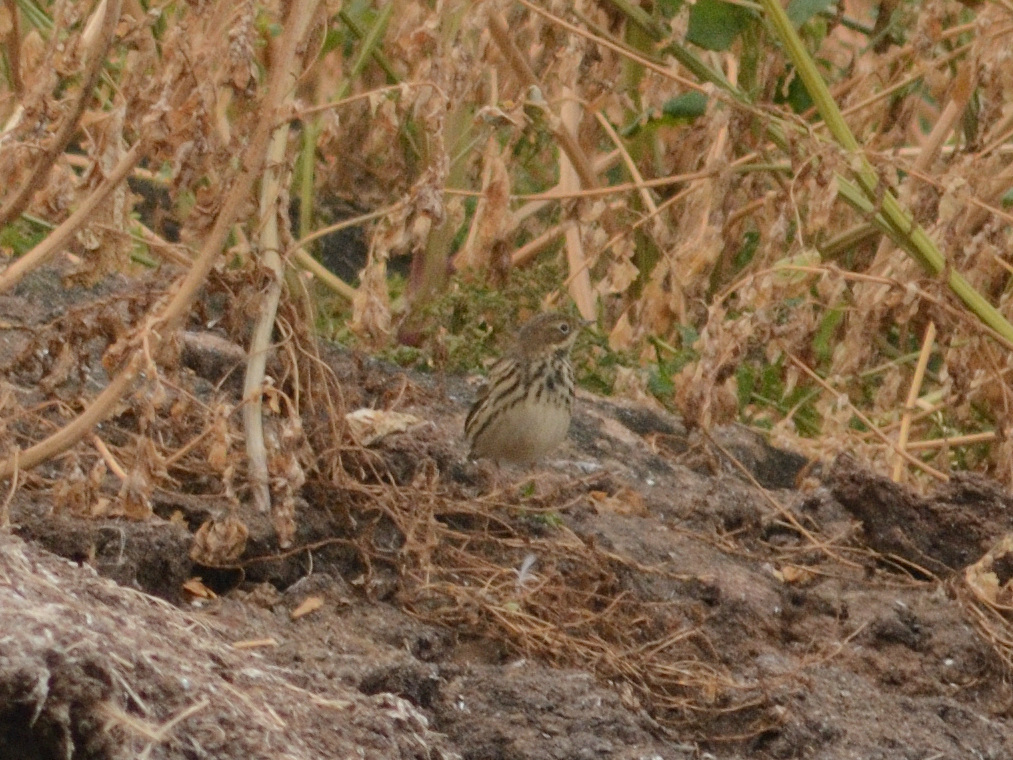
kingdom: Animalia
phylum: Chordata
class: Aves
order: Passeriformes
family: Motacillidae
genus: Anthus
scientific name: Anthus cervinus
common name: Red-throated pipit
